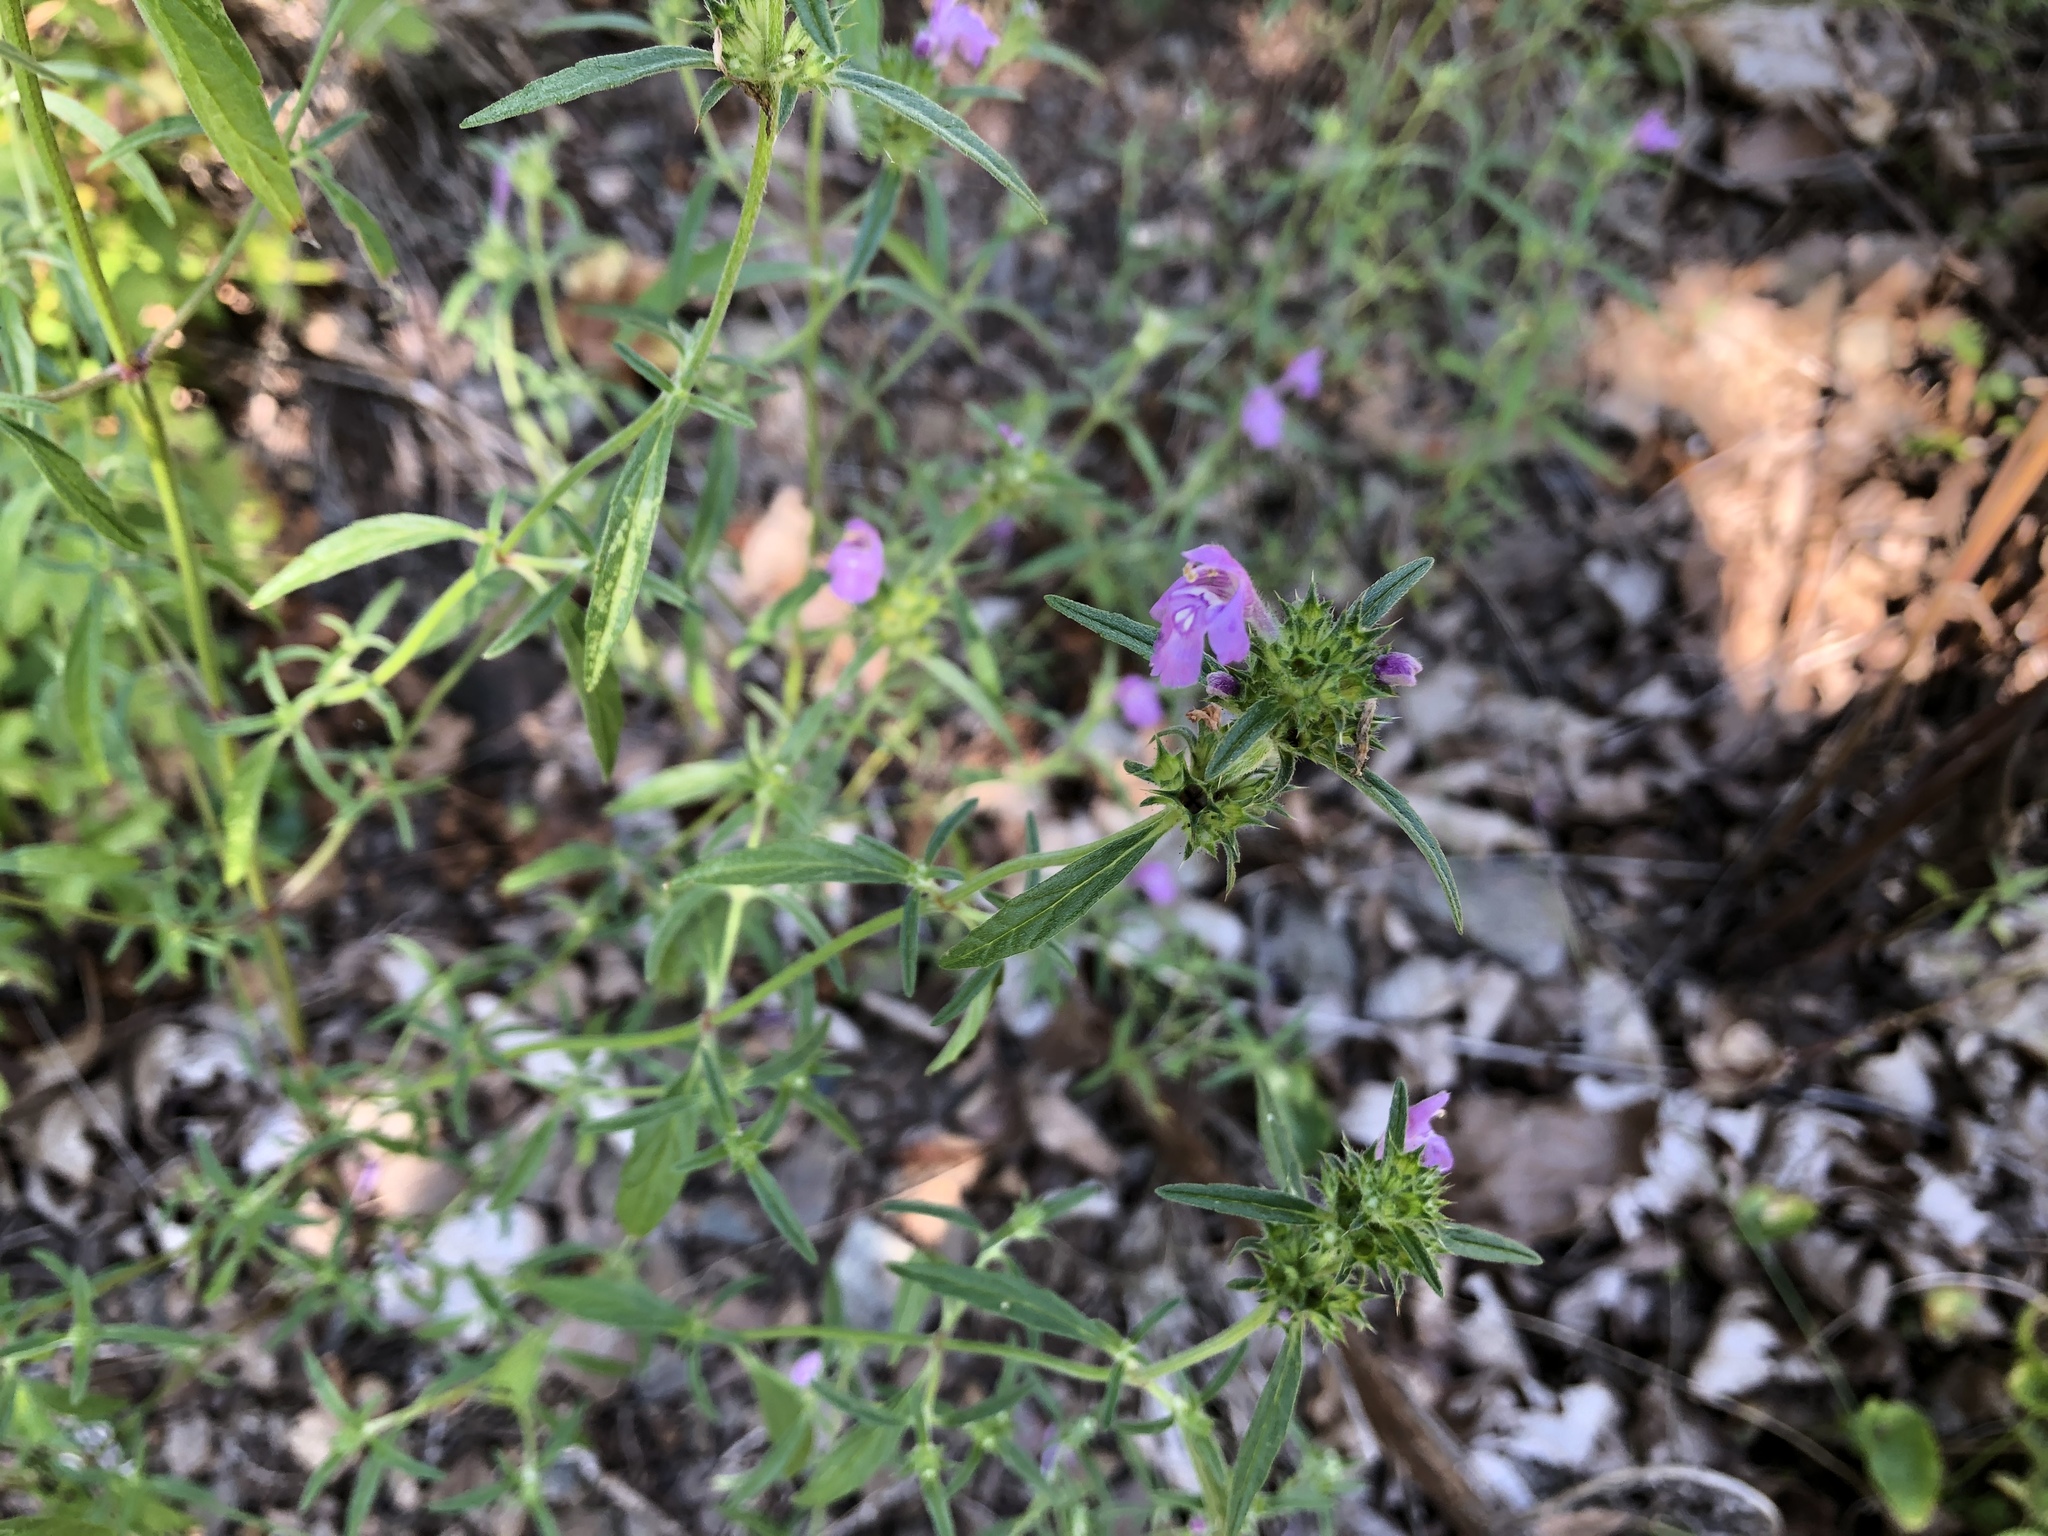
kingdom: Plantae
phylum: Tracheophyta
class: Magnoliopsida
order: Lamiales
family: Lamiaceae
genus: Galeopsis
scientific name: Galeopsis angustifolia
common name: Red hemp-nettle
